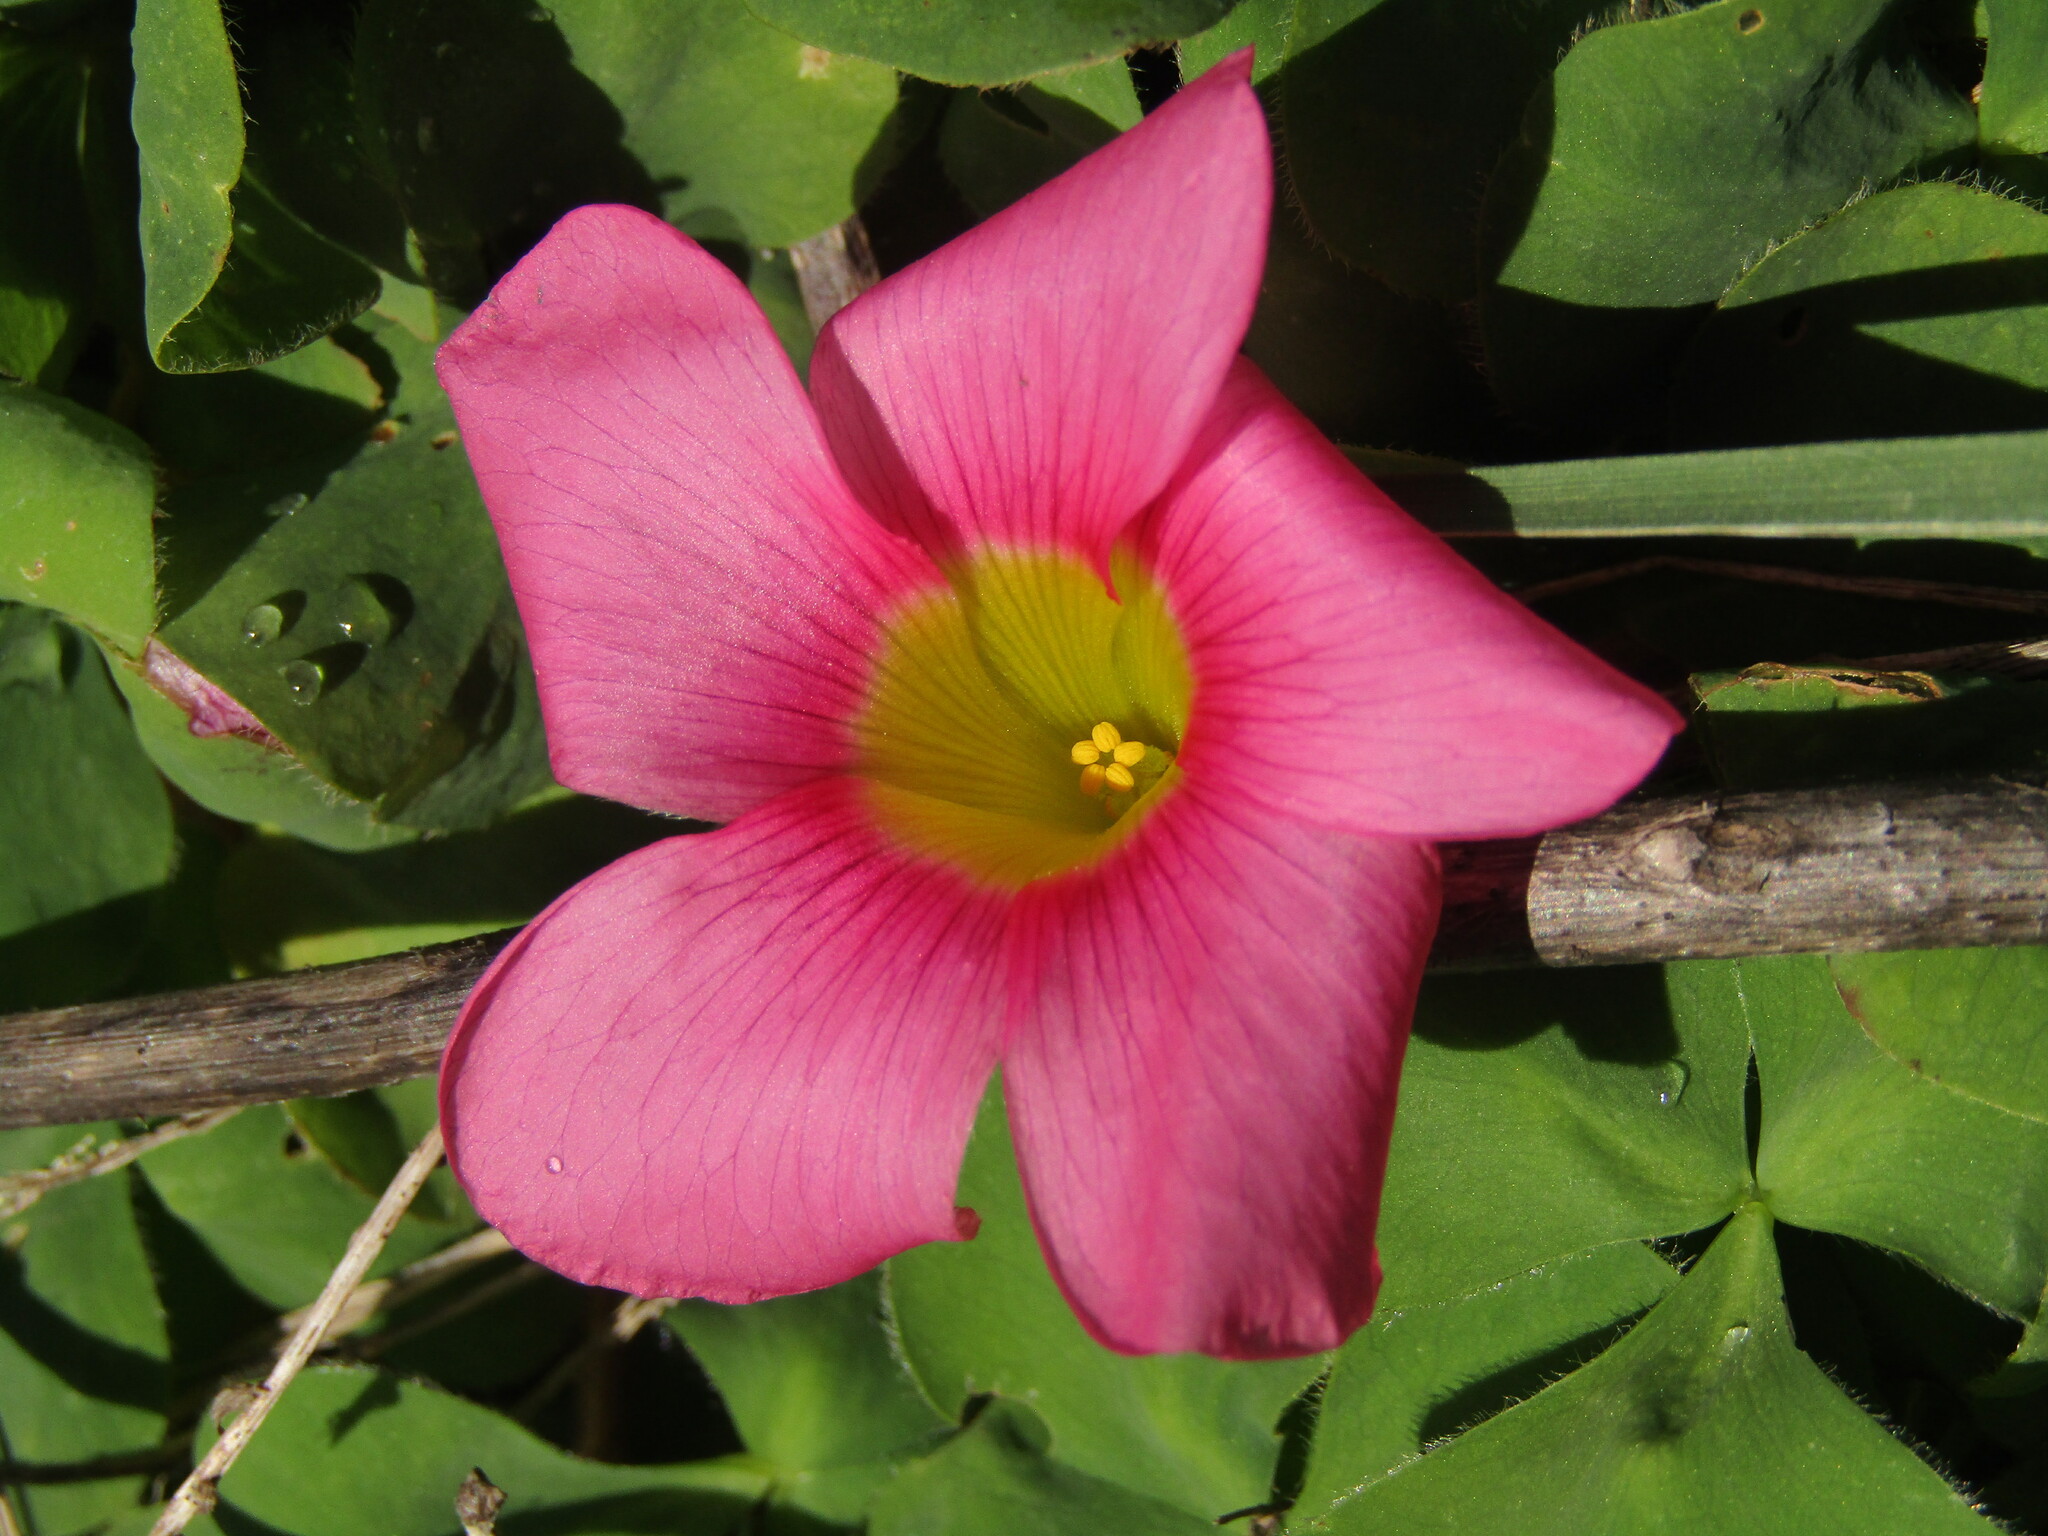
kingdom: Plantae
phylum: Tracheophyta
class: Magnoliopsida
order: Oxalidales
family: Oxalidaceae
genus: Oxalis
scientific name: Oxalis purpurea
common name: Purple woodsorrel
